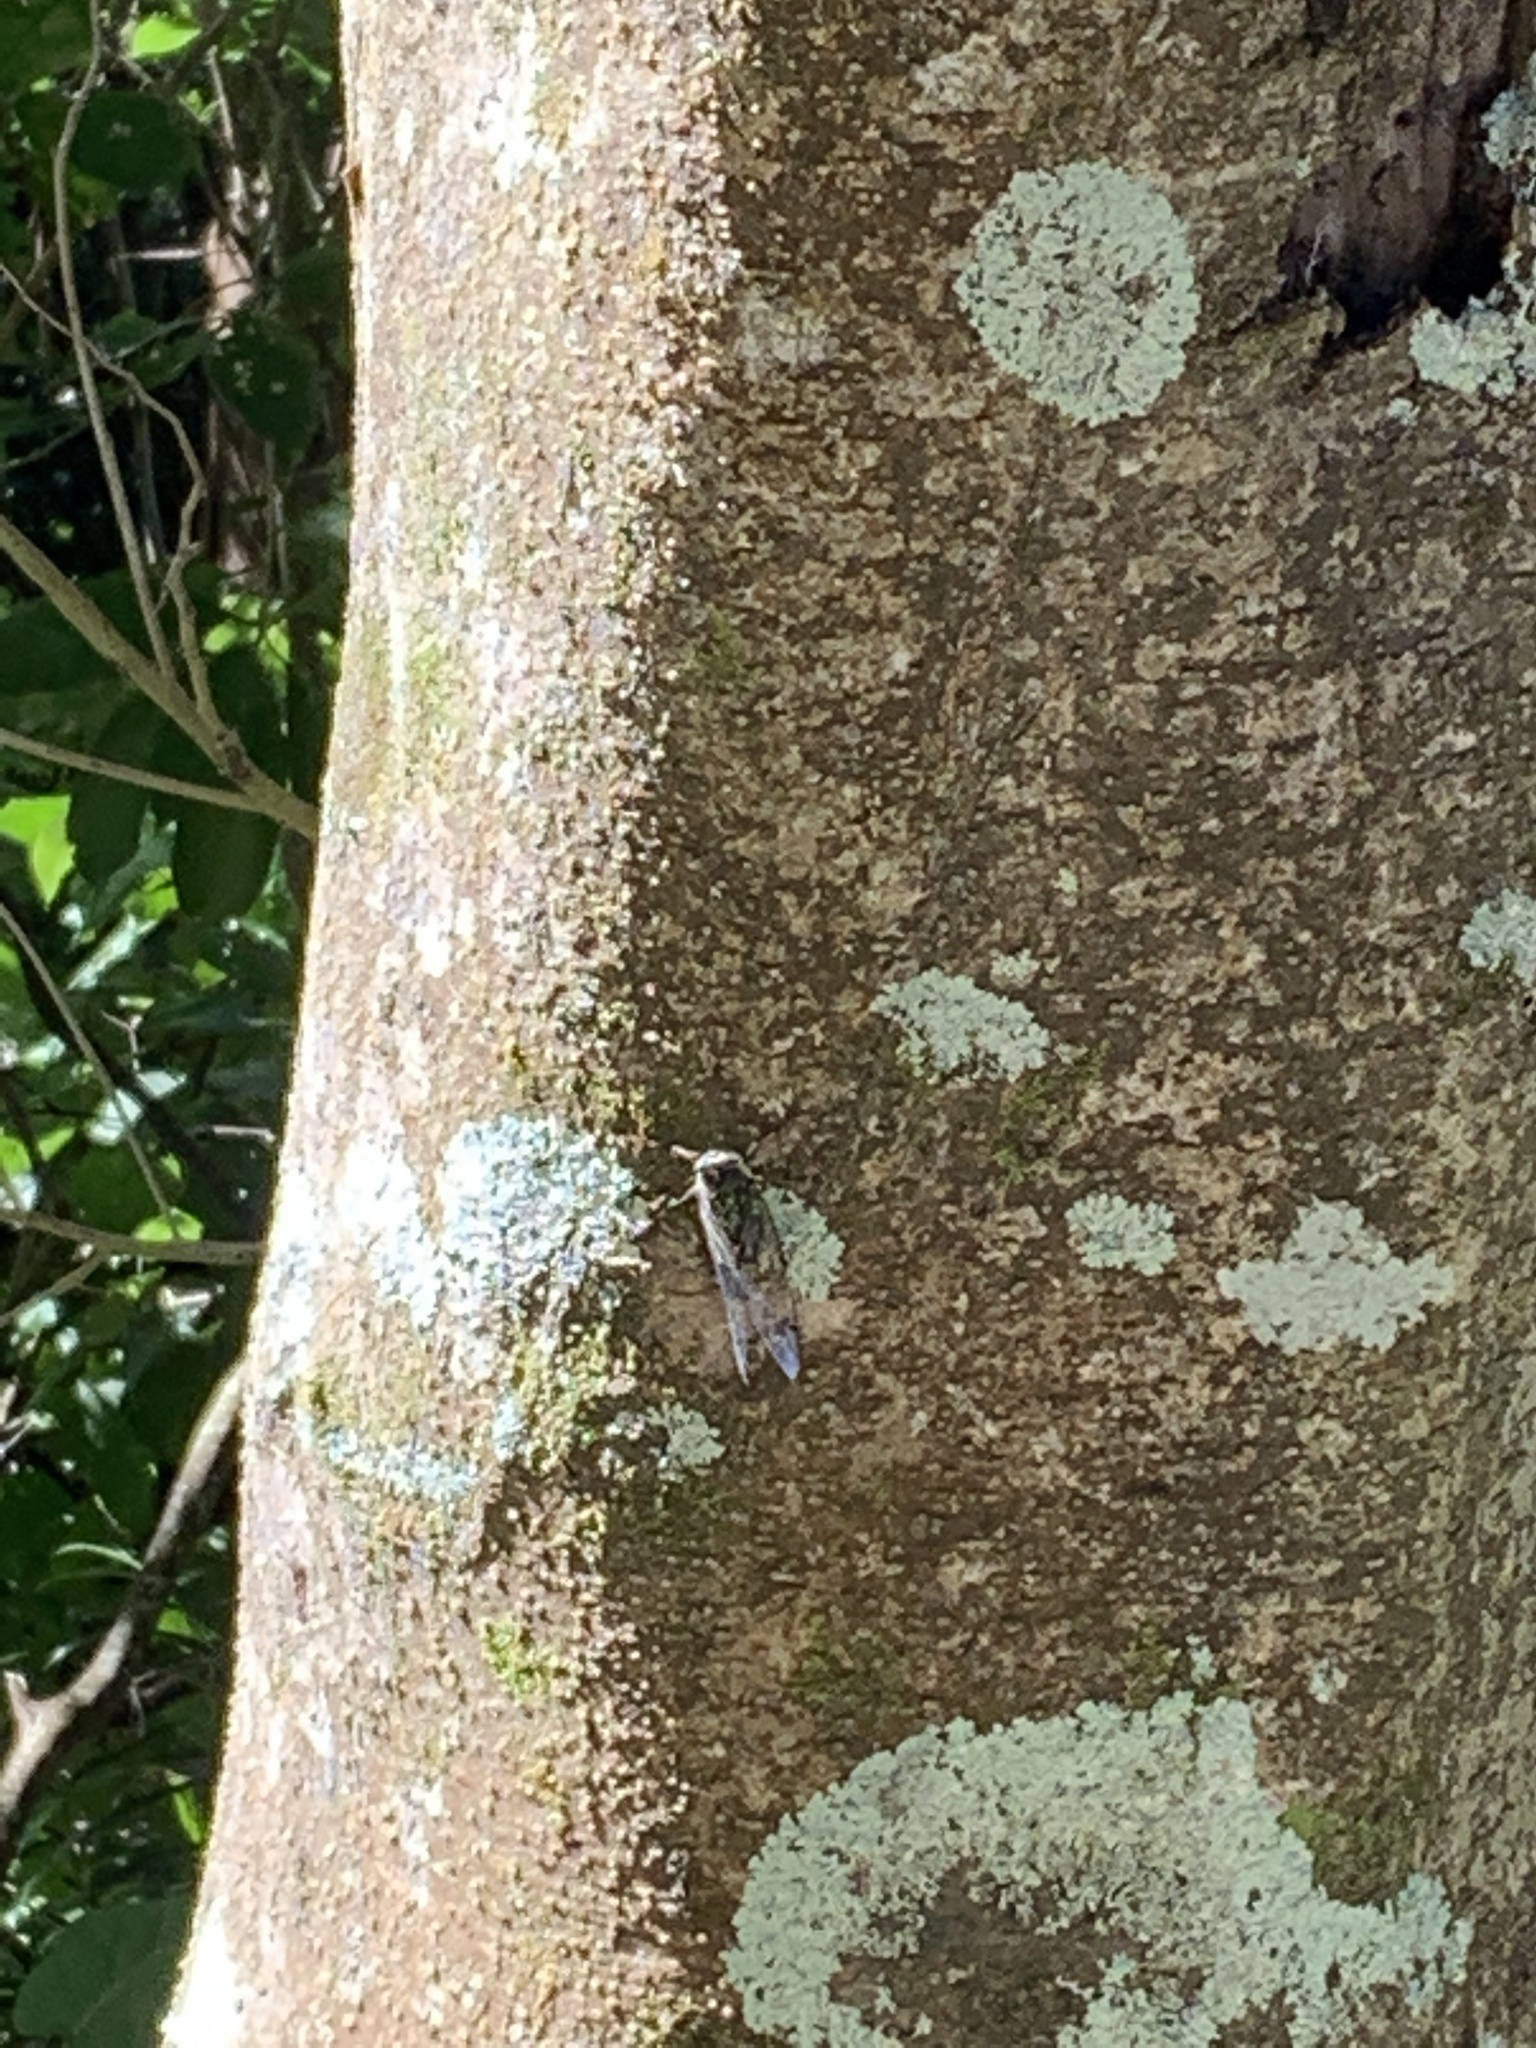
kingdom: Animalia
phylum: Arthropoda
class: Insecta
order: Hemiptera
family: Cicadidae
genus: Amphipsalta
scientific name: Amphipsalta zelandica
